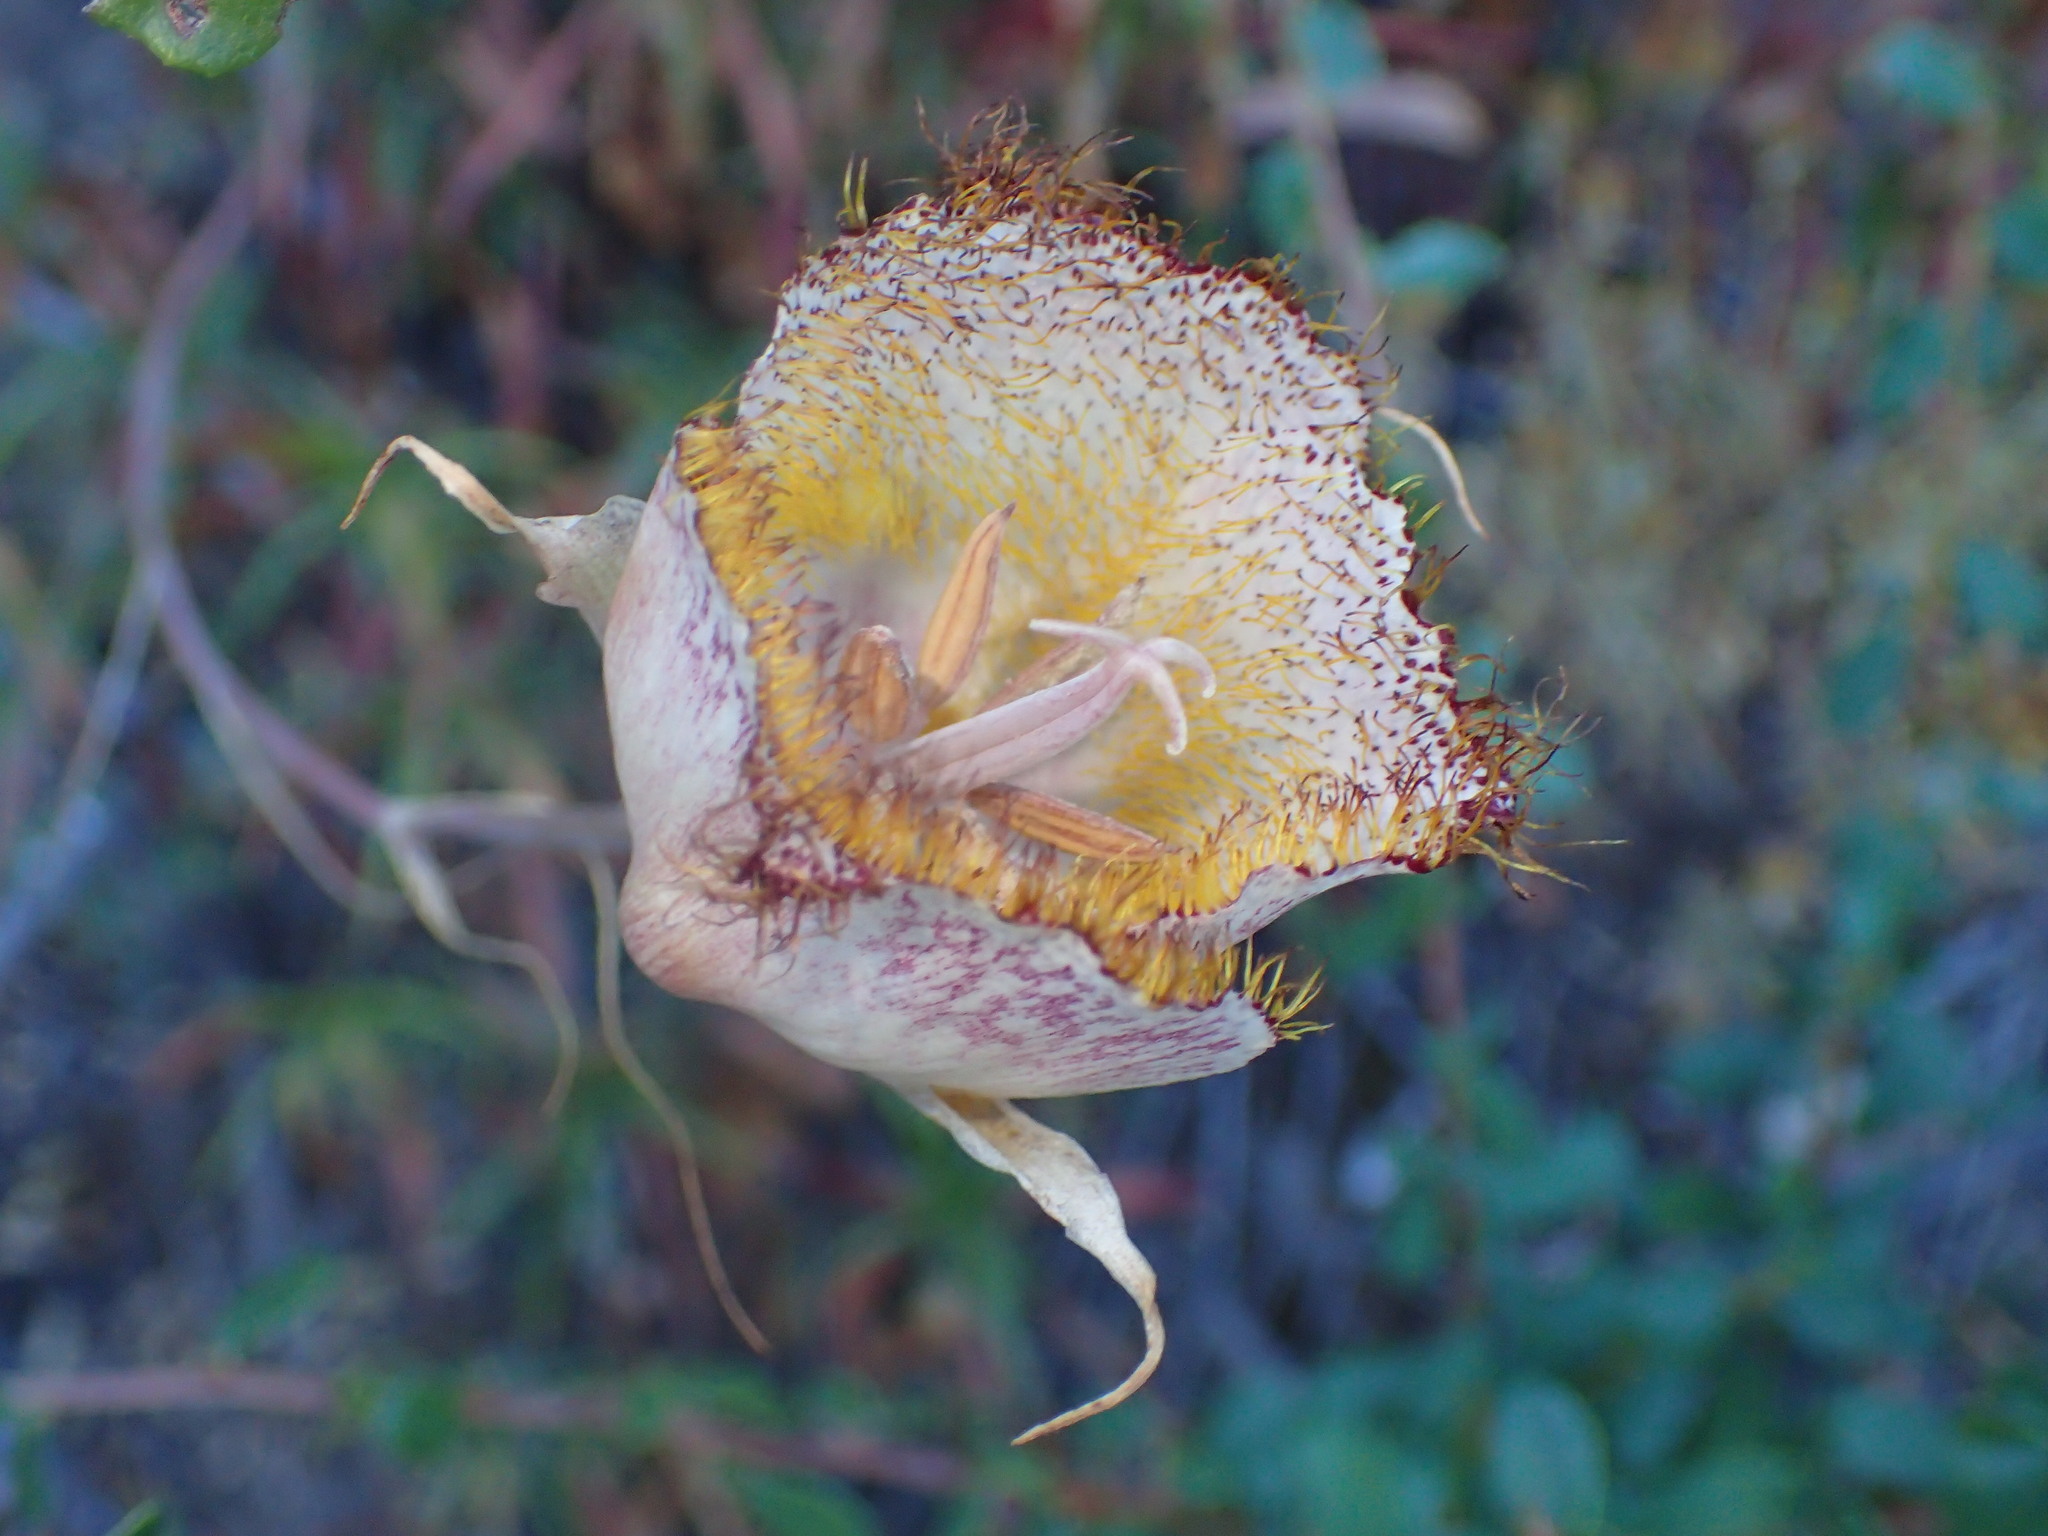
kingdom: Plantae
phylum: Tracheophyta
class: Liliopsida
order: Liliales
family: Liliaceae
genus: Calochortus
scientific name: Calochortus fimbriatus
